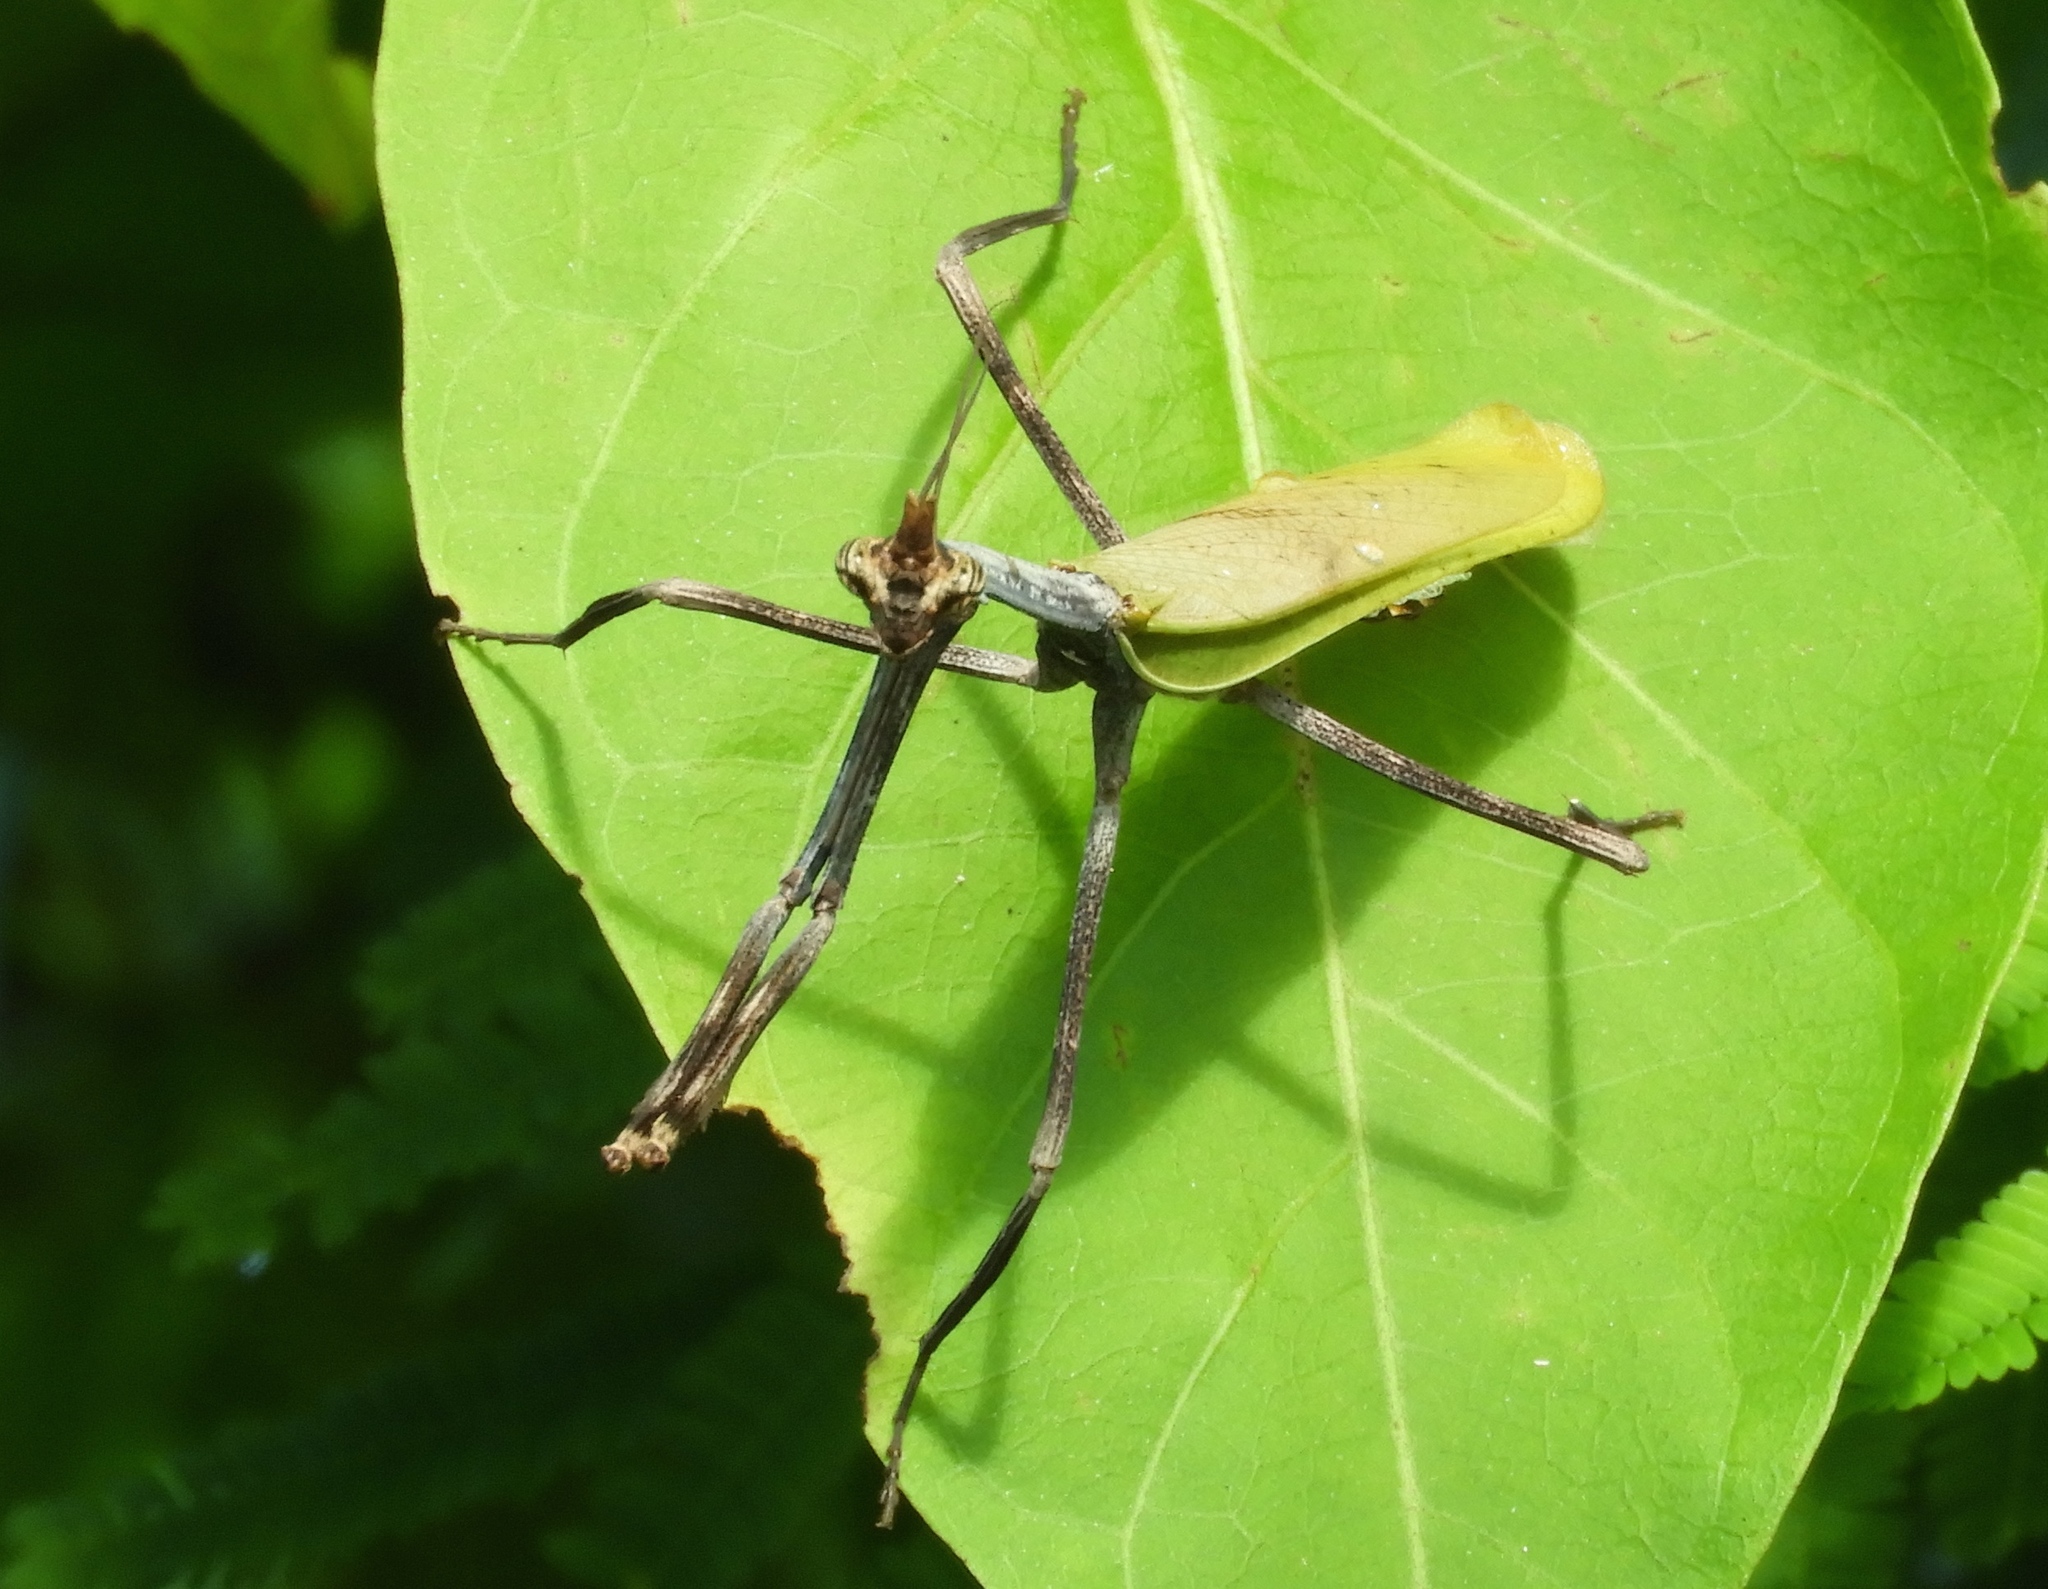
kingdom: Animalia
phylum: Arthropoda
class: Insecta
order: Mantodea
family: Mantidae
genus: Pseudovates
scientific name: Pseudovates chlorophaea
